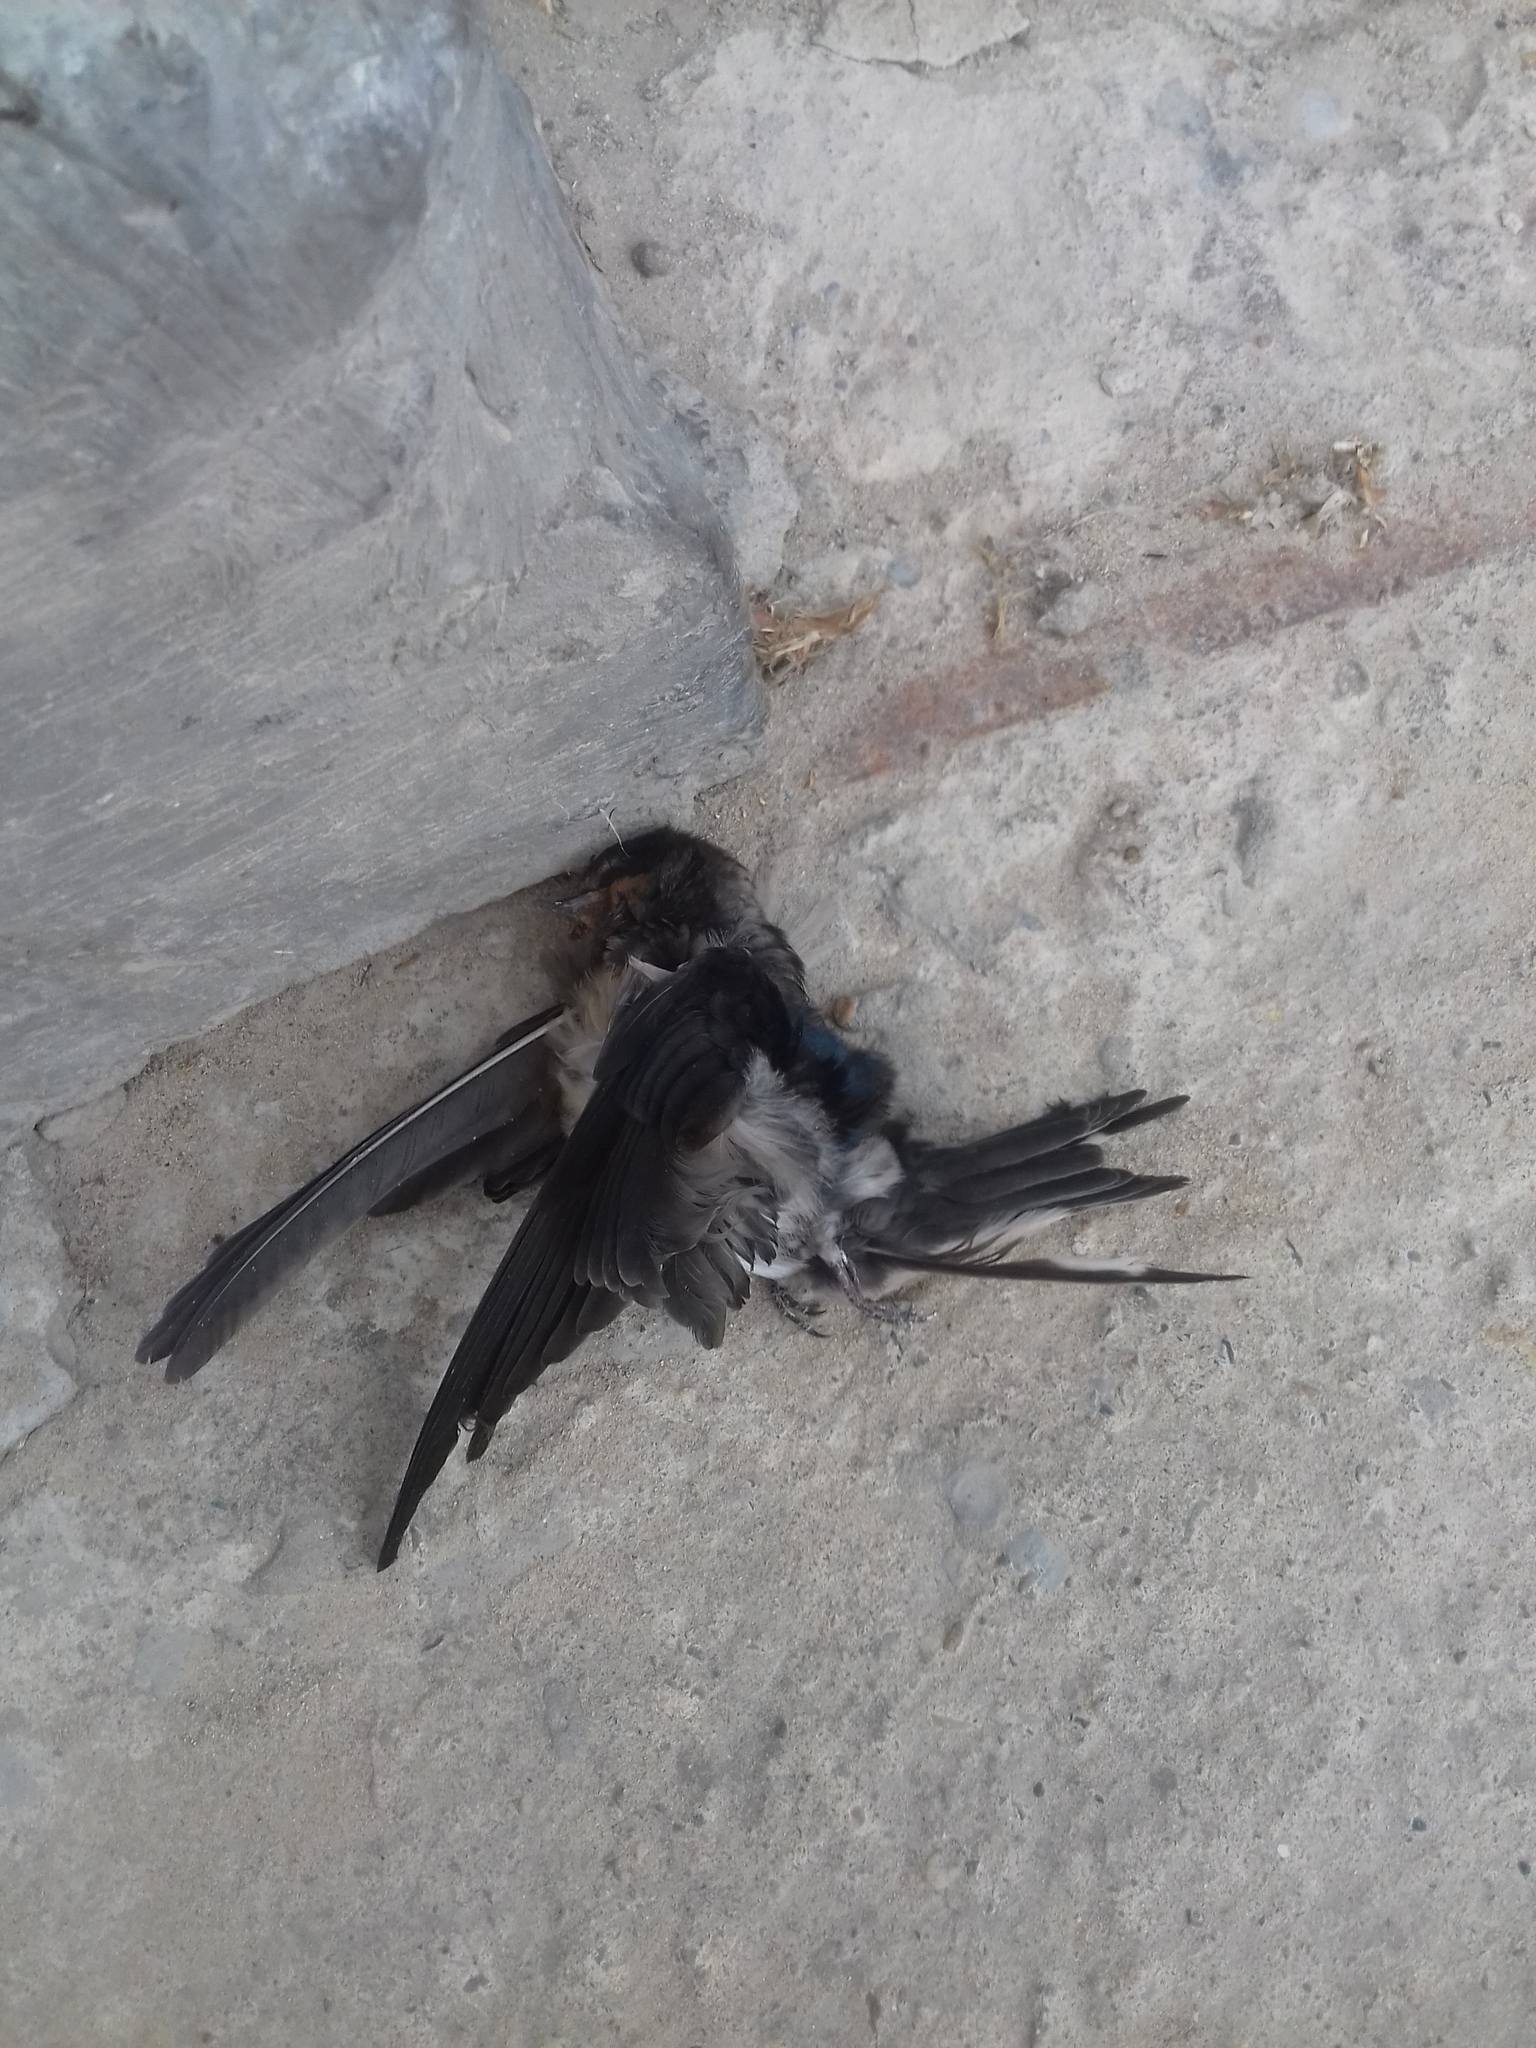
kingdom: Animalia
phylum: Chordata
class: Aves
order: Passeriformes
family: Hirundinidae
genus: Hirundo
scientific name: Hirundo rustica
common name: Barn swallow
